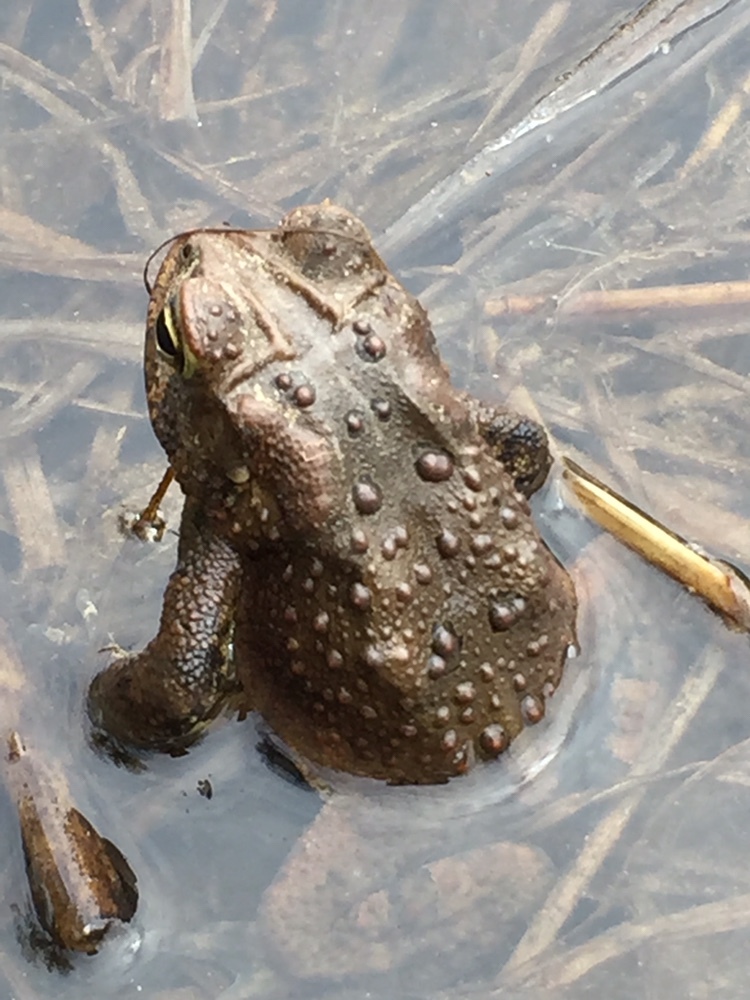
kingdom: Animalia
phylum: Chordata
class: Amphibia
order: Anura
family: Bufonidae
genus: Anaxyrus
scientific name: Anaxyrus americanus
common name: American toad
